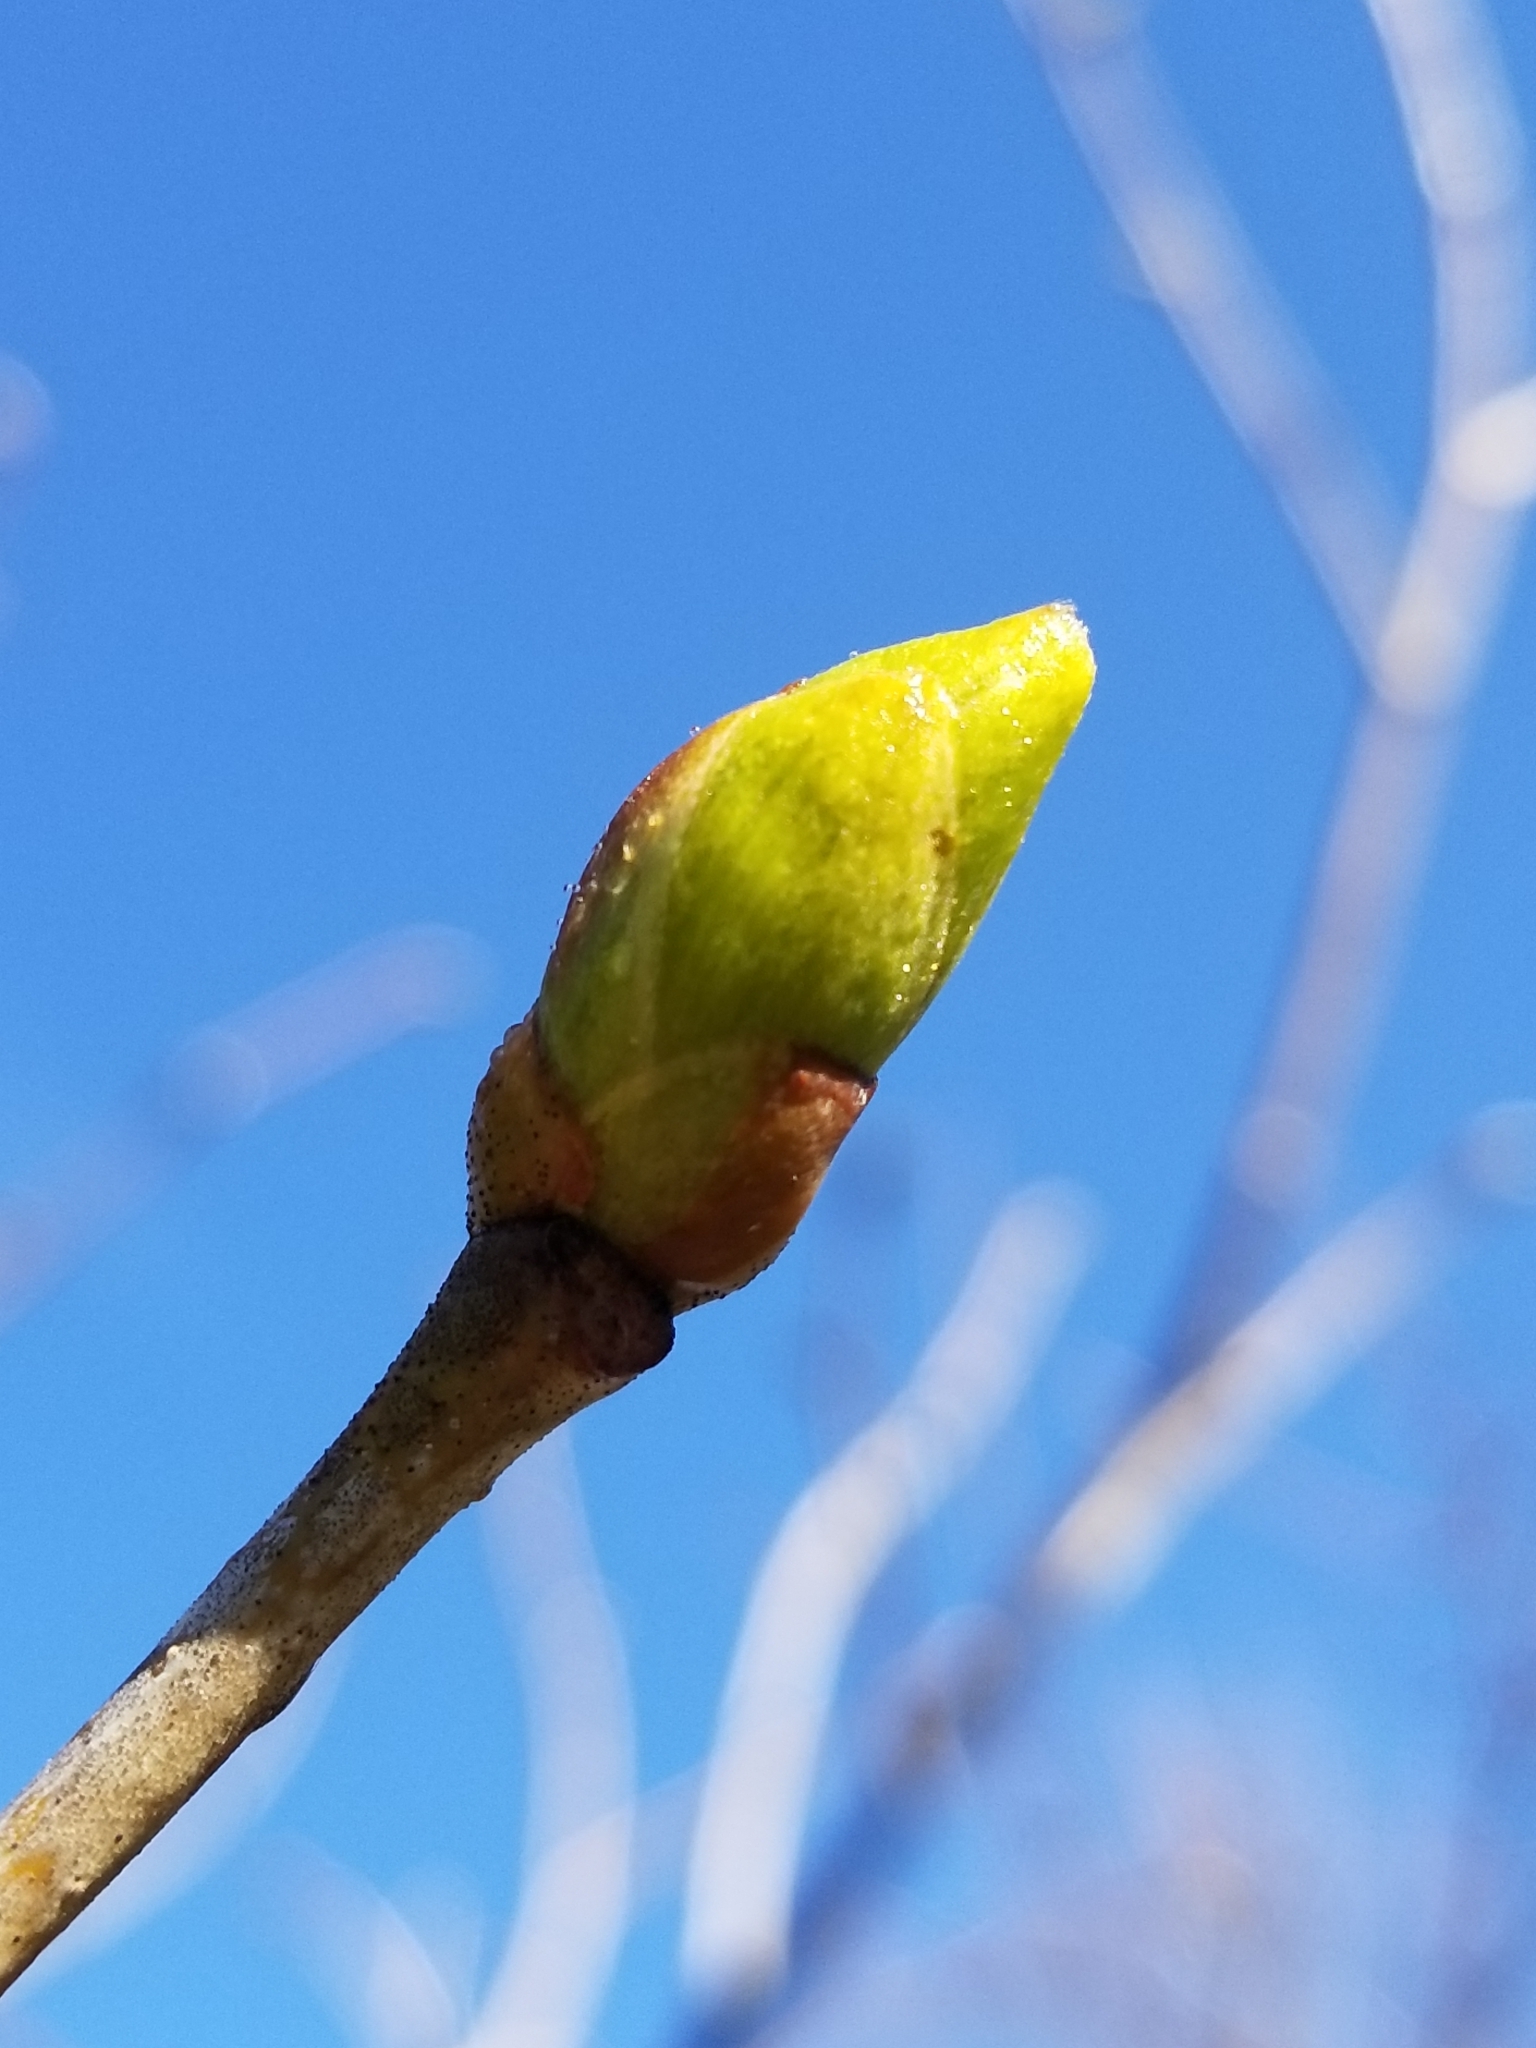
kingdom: Plantae
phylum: Tracheophyta
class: Magnoliopsida
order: Malvales
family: Malvaceae
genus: Tilia
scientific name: Tilia americana
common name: Basswood
